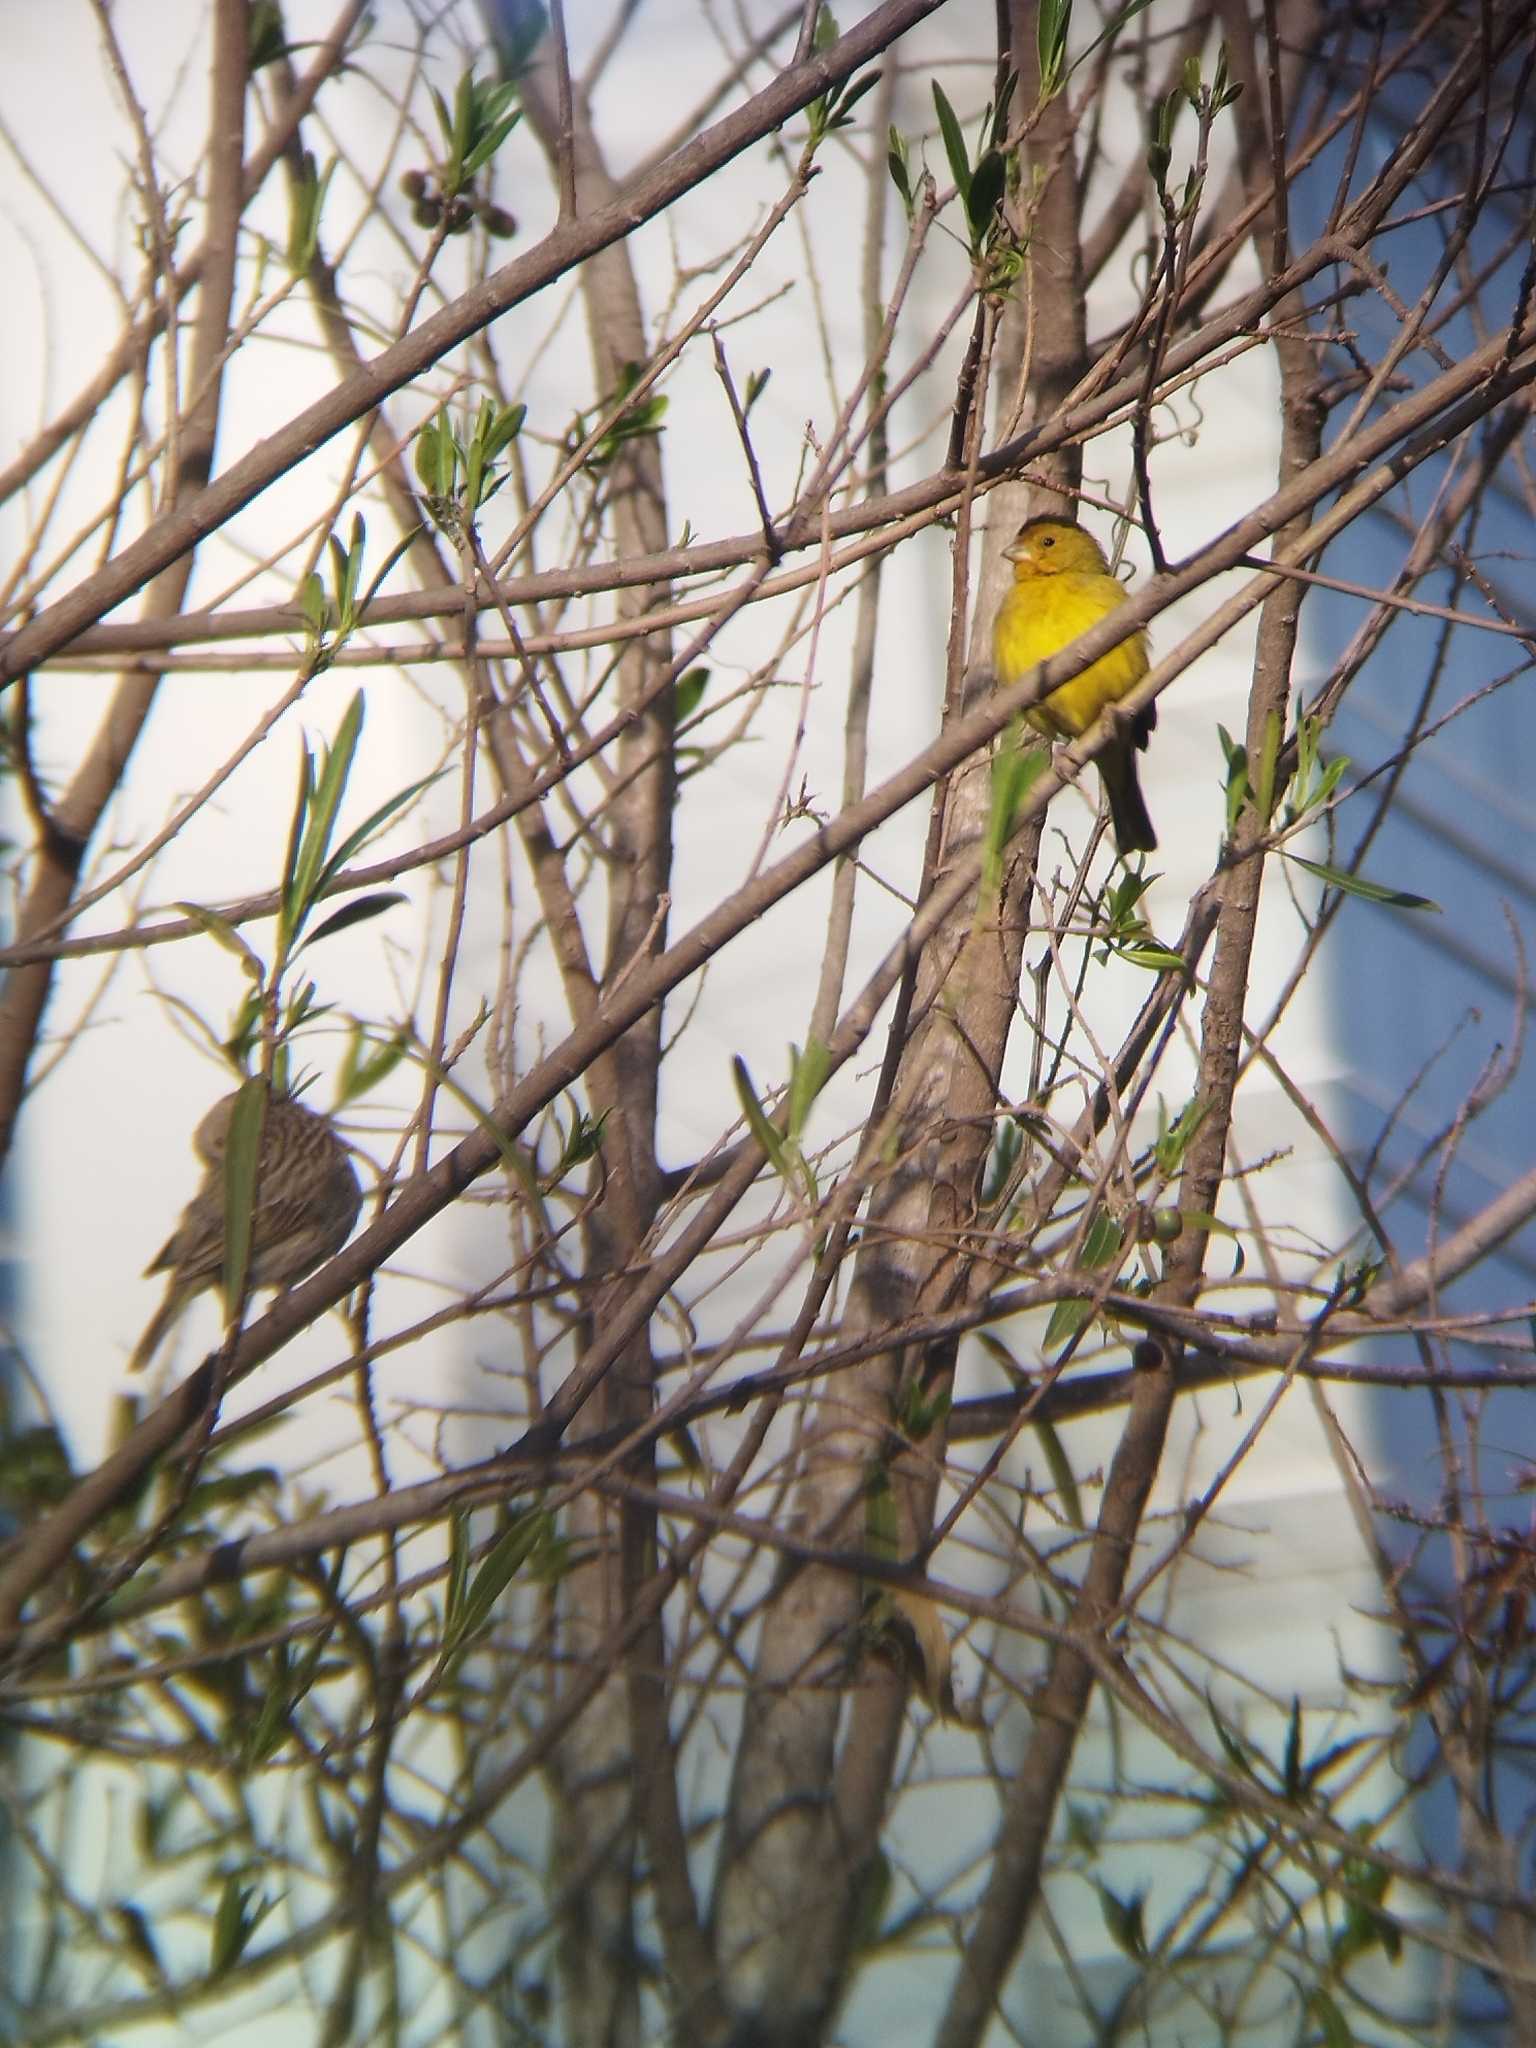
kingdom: Animalia
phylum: Chordata
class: Aves
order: Passeriformes
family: Thraupidae
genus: Sicalis
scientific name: Sicalis flaveola
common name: Saffron finch
